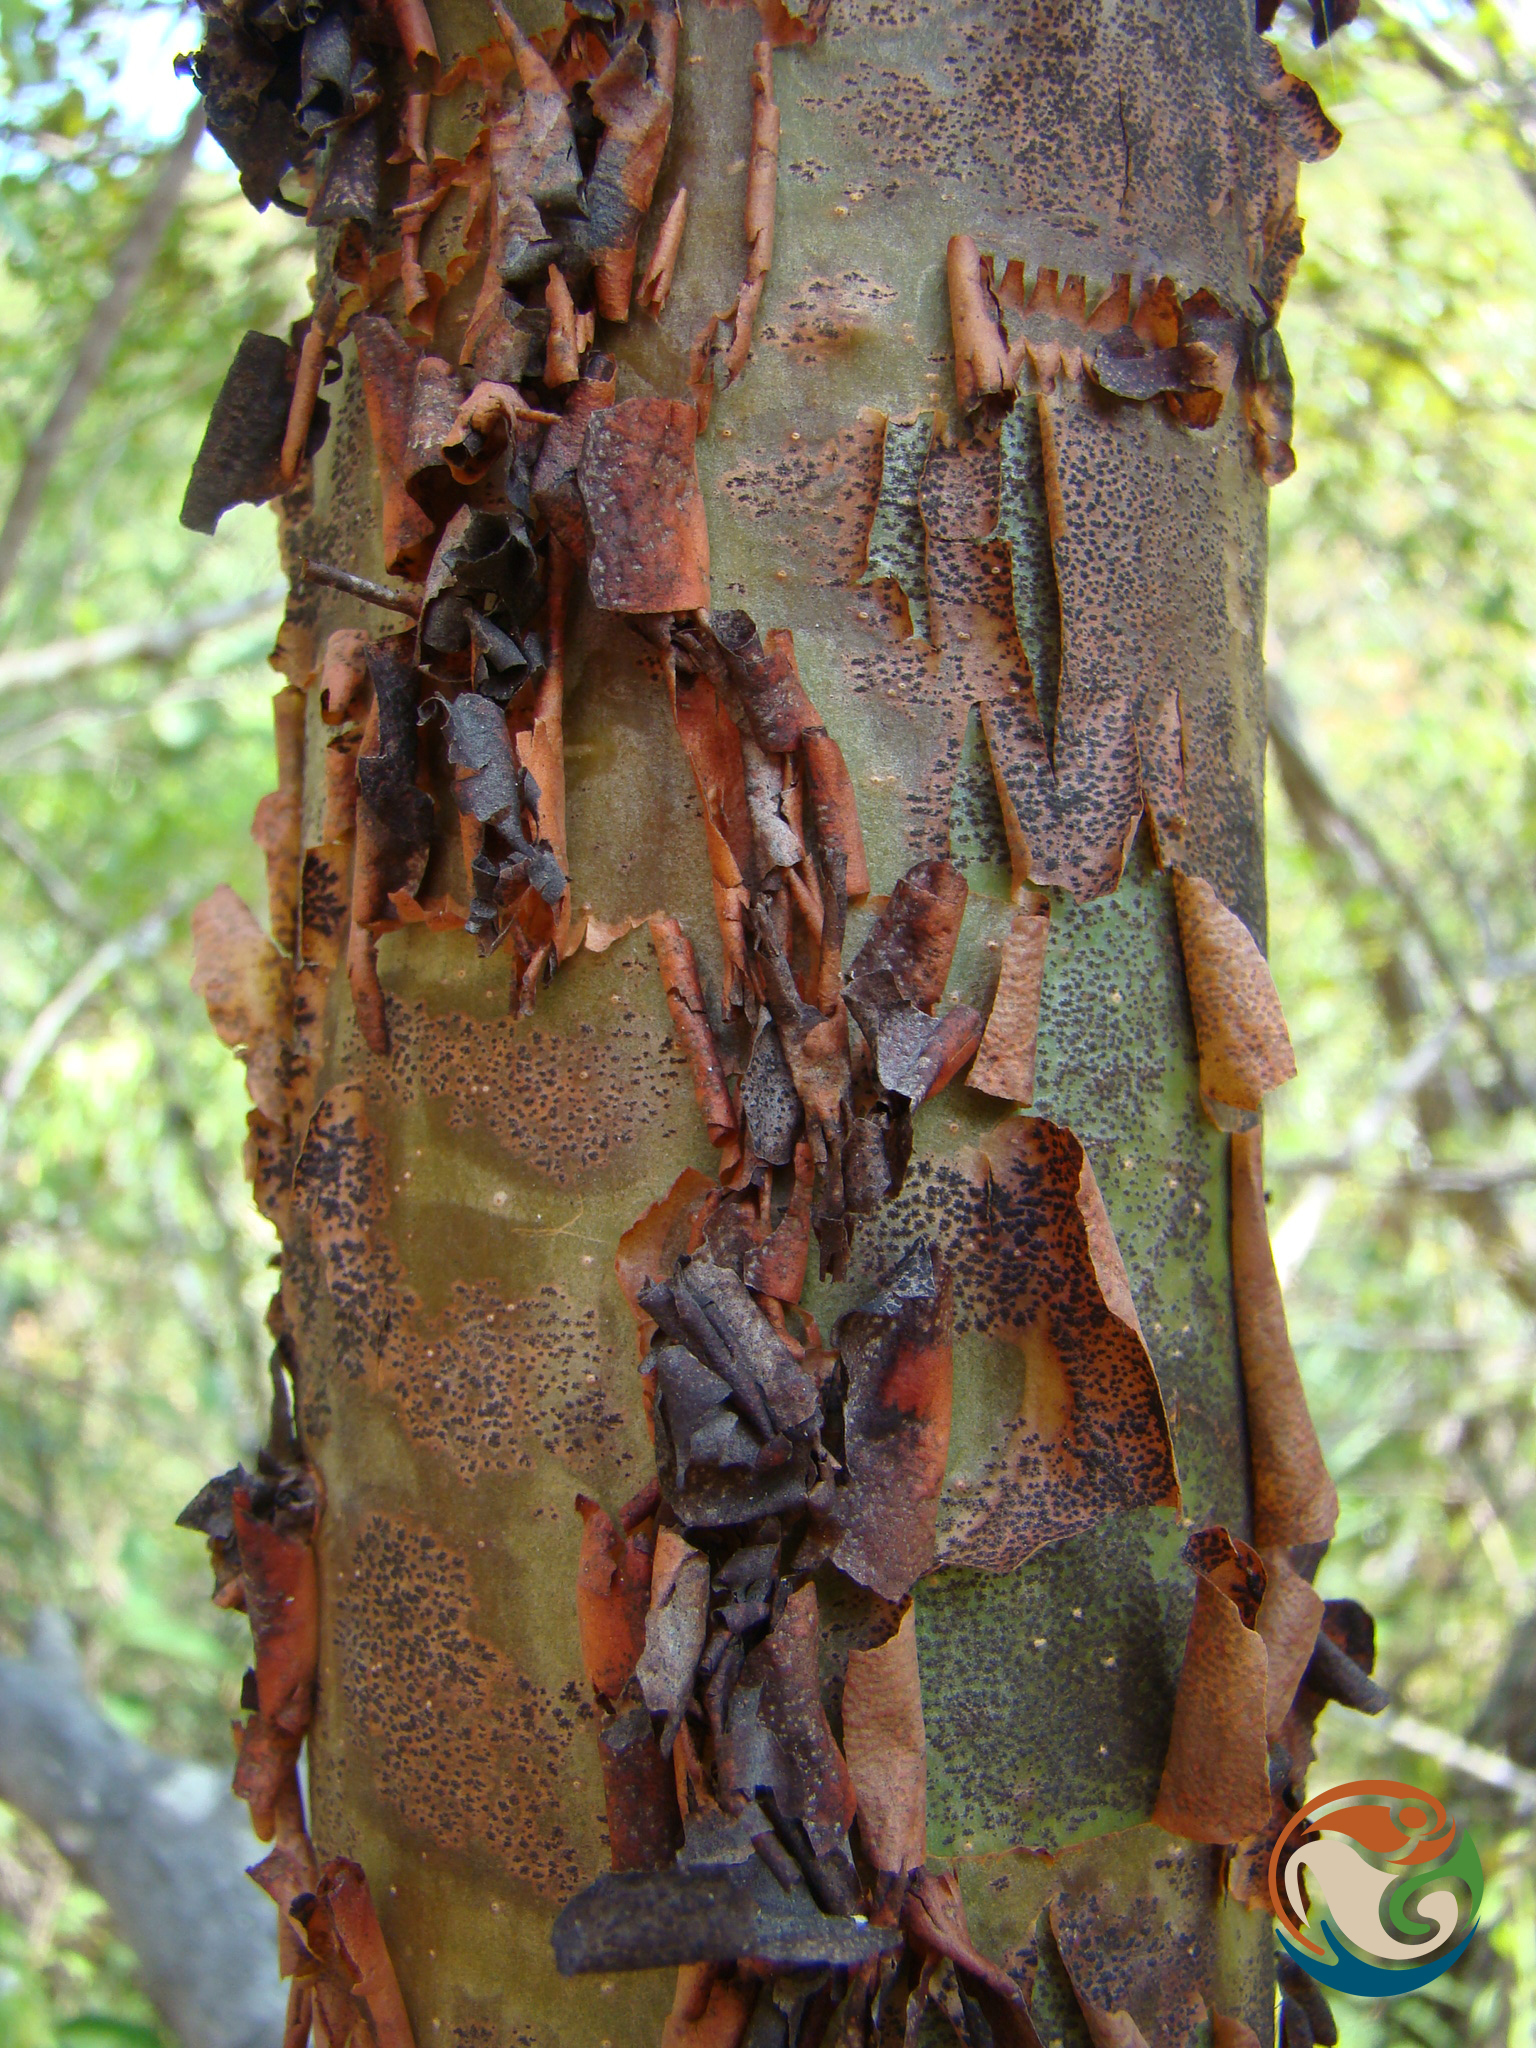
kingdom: Plantae
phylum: Tracheophyta
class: Magnoliopsida
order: Sapindales
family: Burseraceae
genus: Bursera
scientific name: Bursera morelensis
